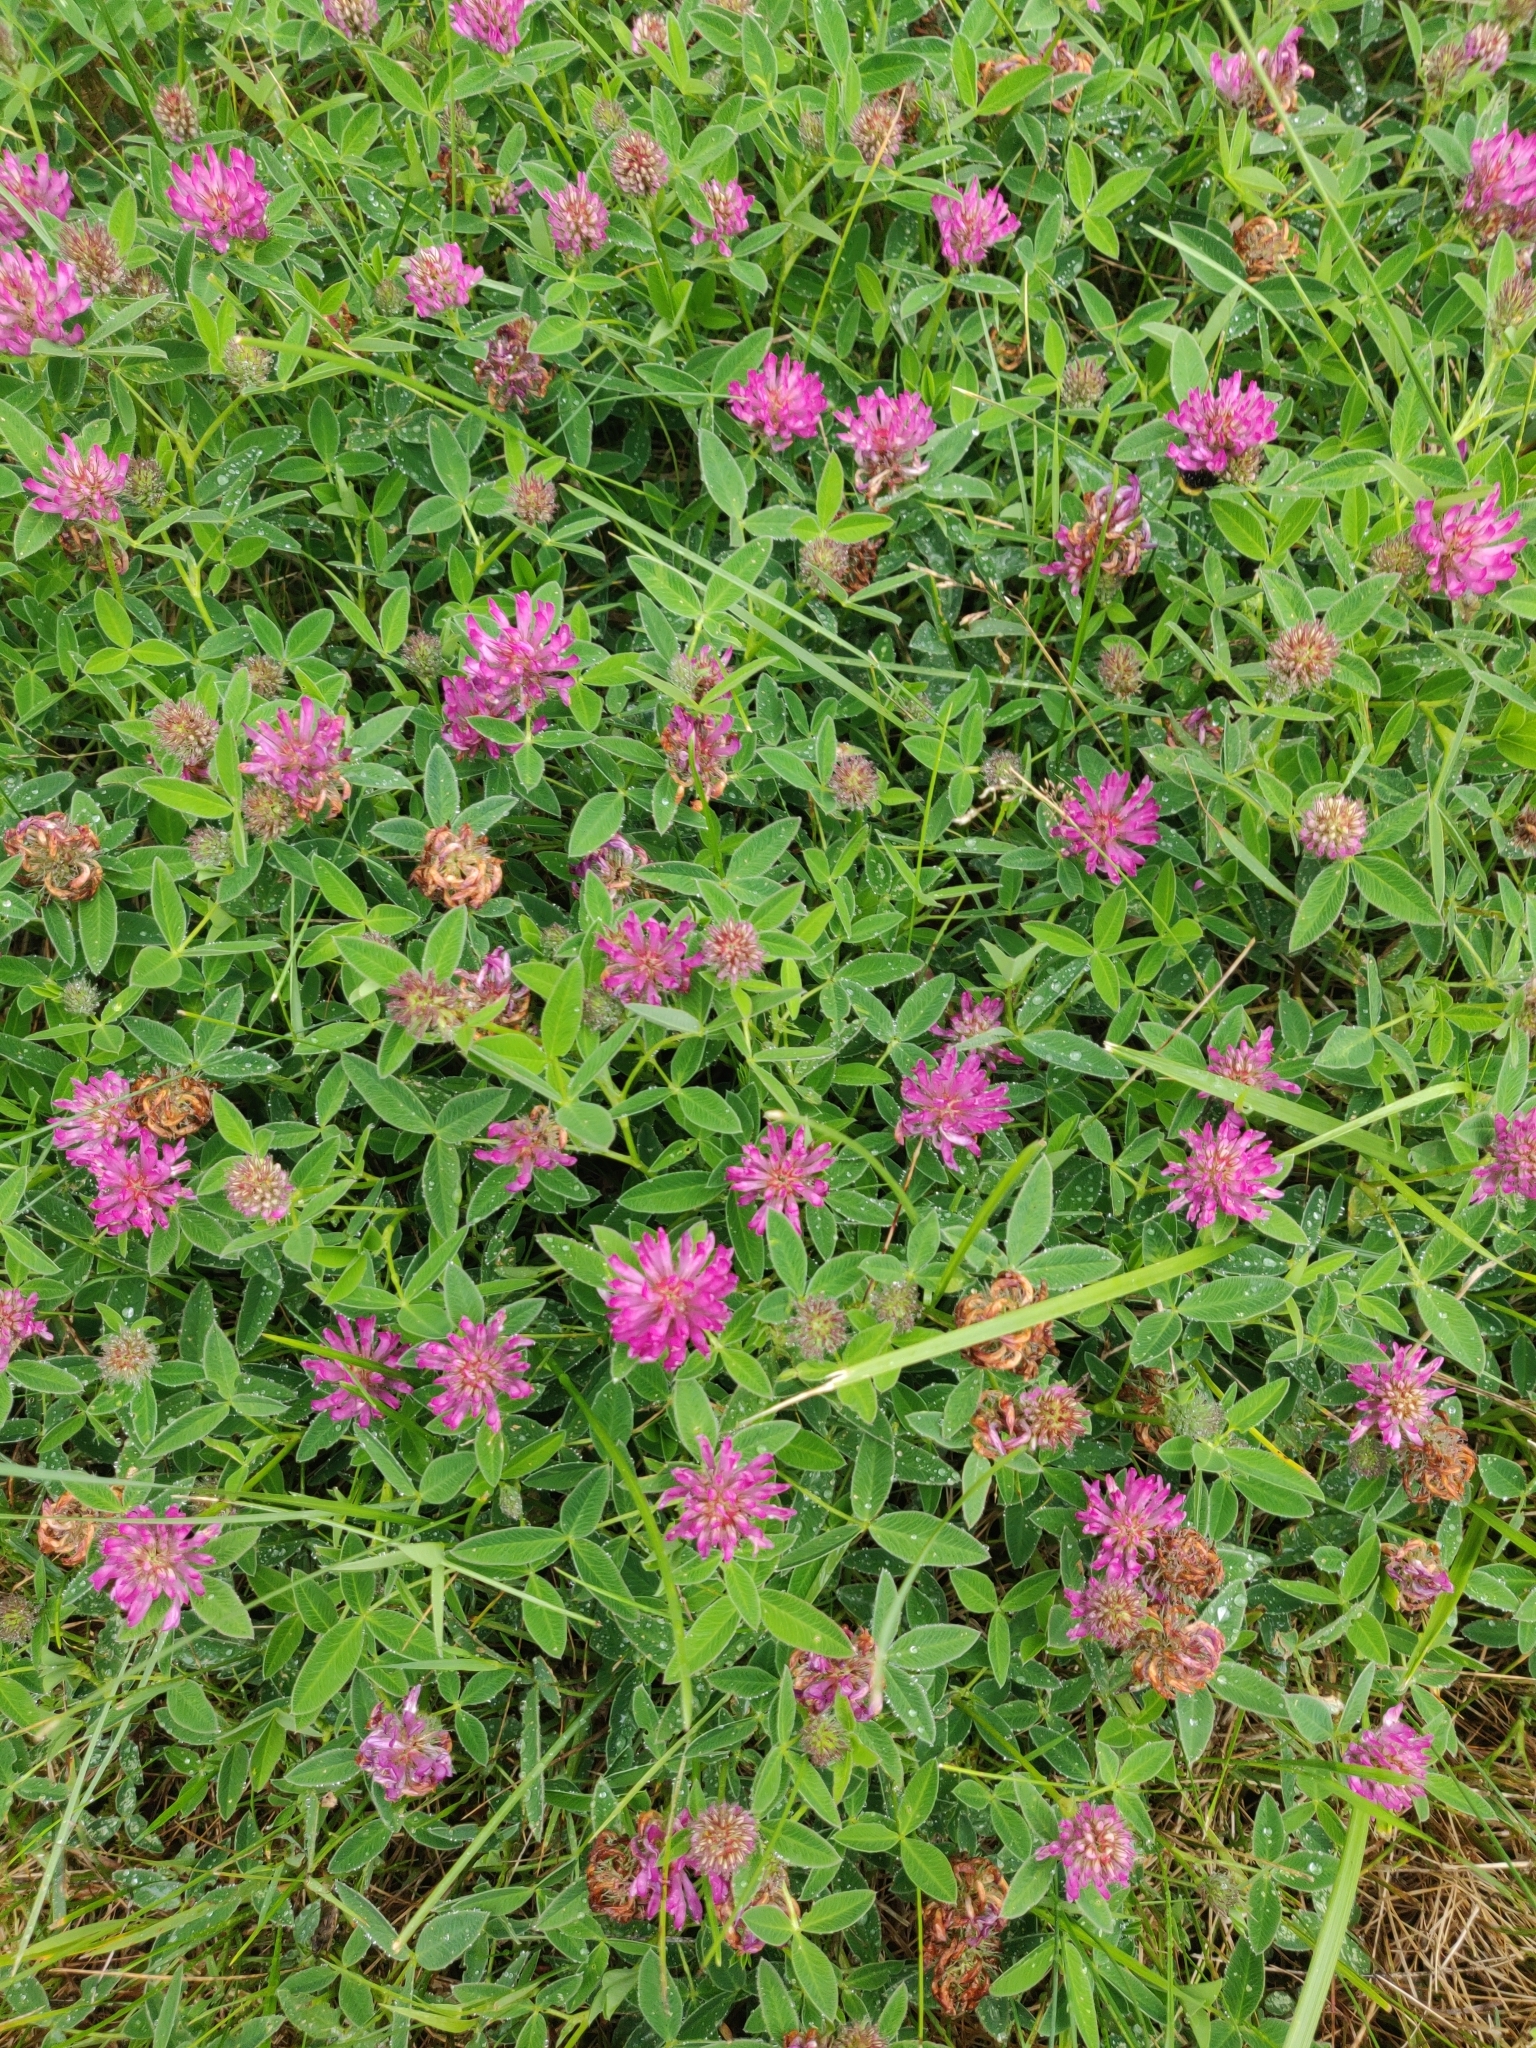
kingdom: Plantae
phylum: Tracheophyta
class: Magnoliopsida
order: Fabales
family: Fabaceae
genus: Trifolium
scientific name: Trifolium medium
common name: Zigzag clover
